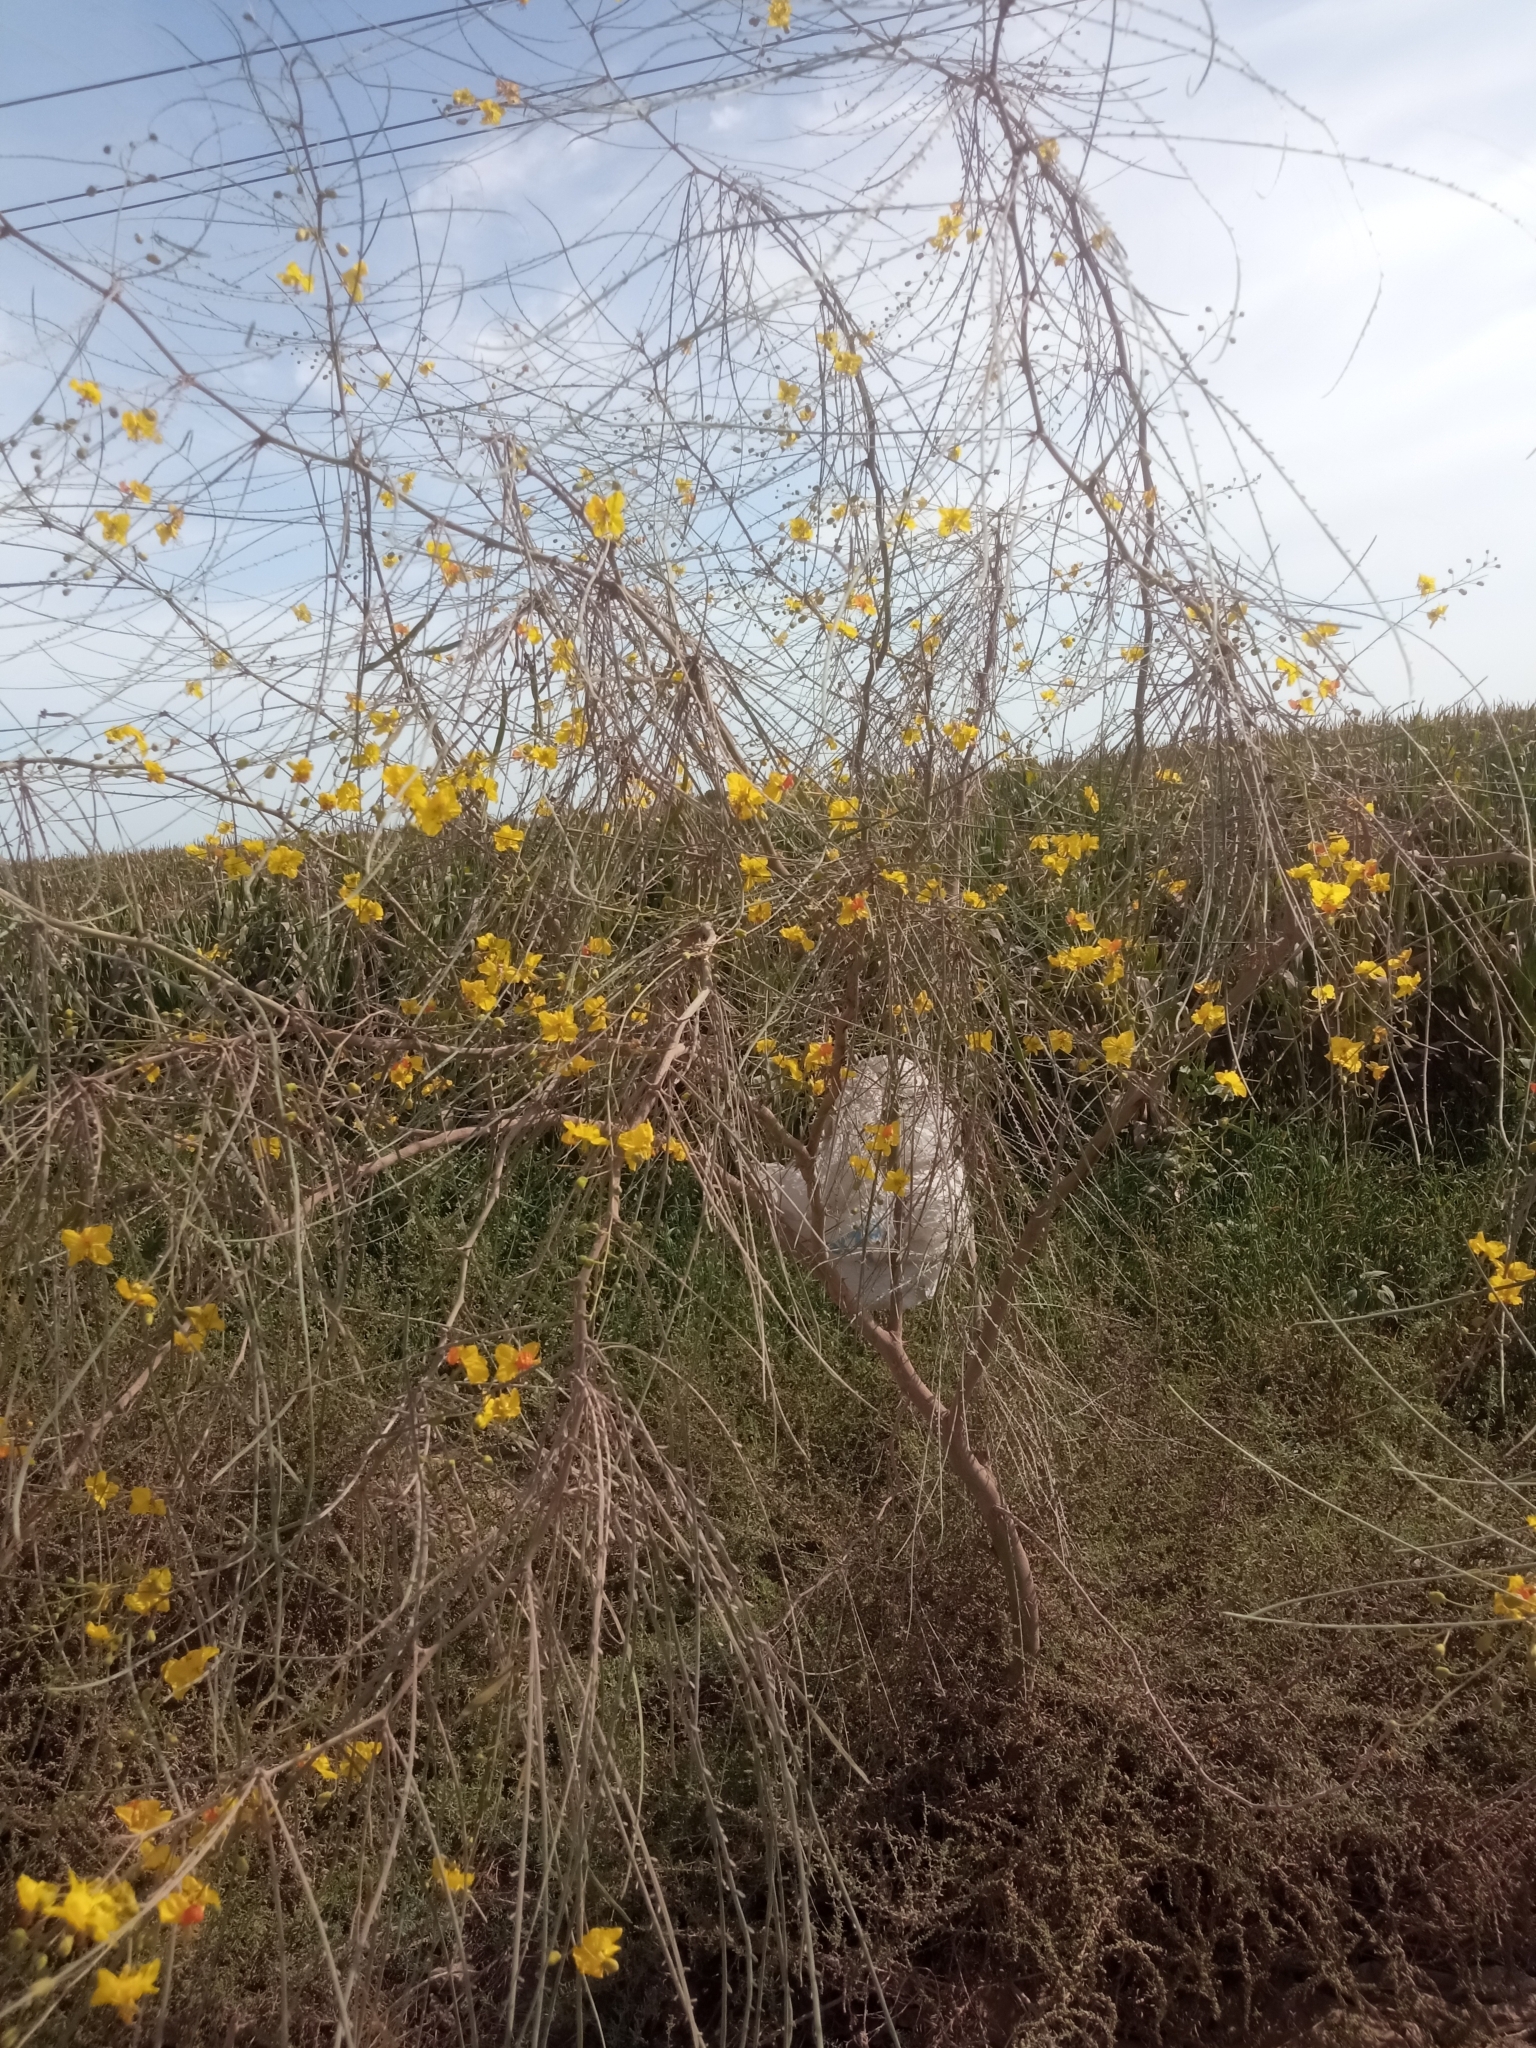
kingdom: Plantae
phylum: Tracheophyta
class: Magnoliopsida
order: Fabales
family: Fabaceae
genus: Parkinsonia
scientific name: Parkinsonia aculeata
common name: Jerusalem thorn
